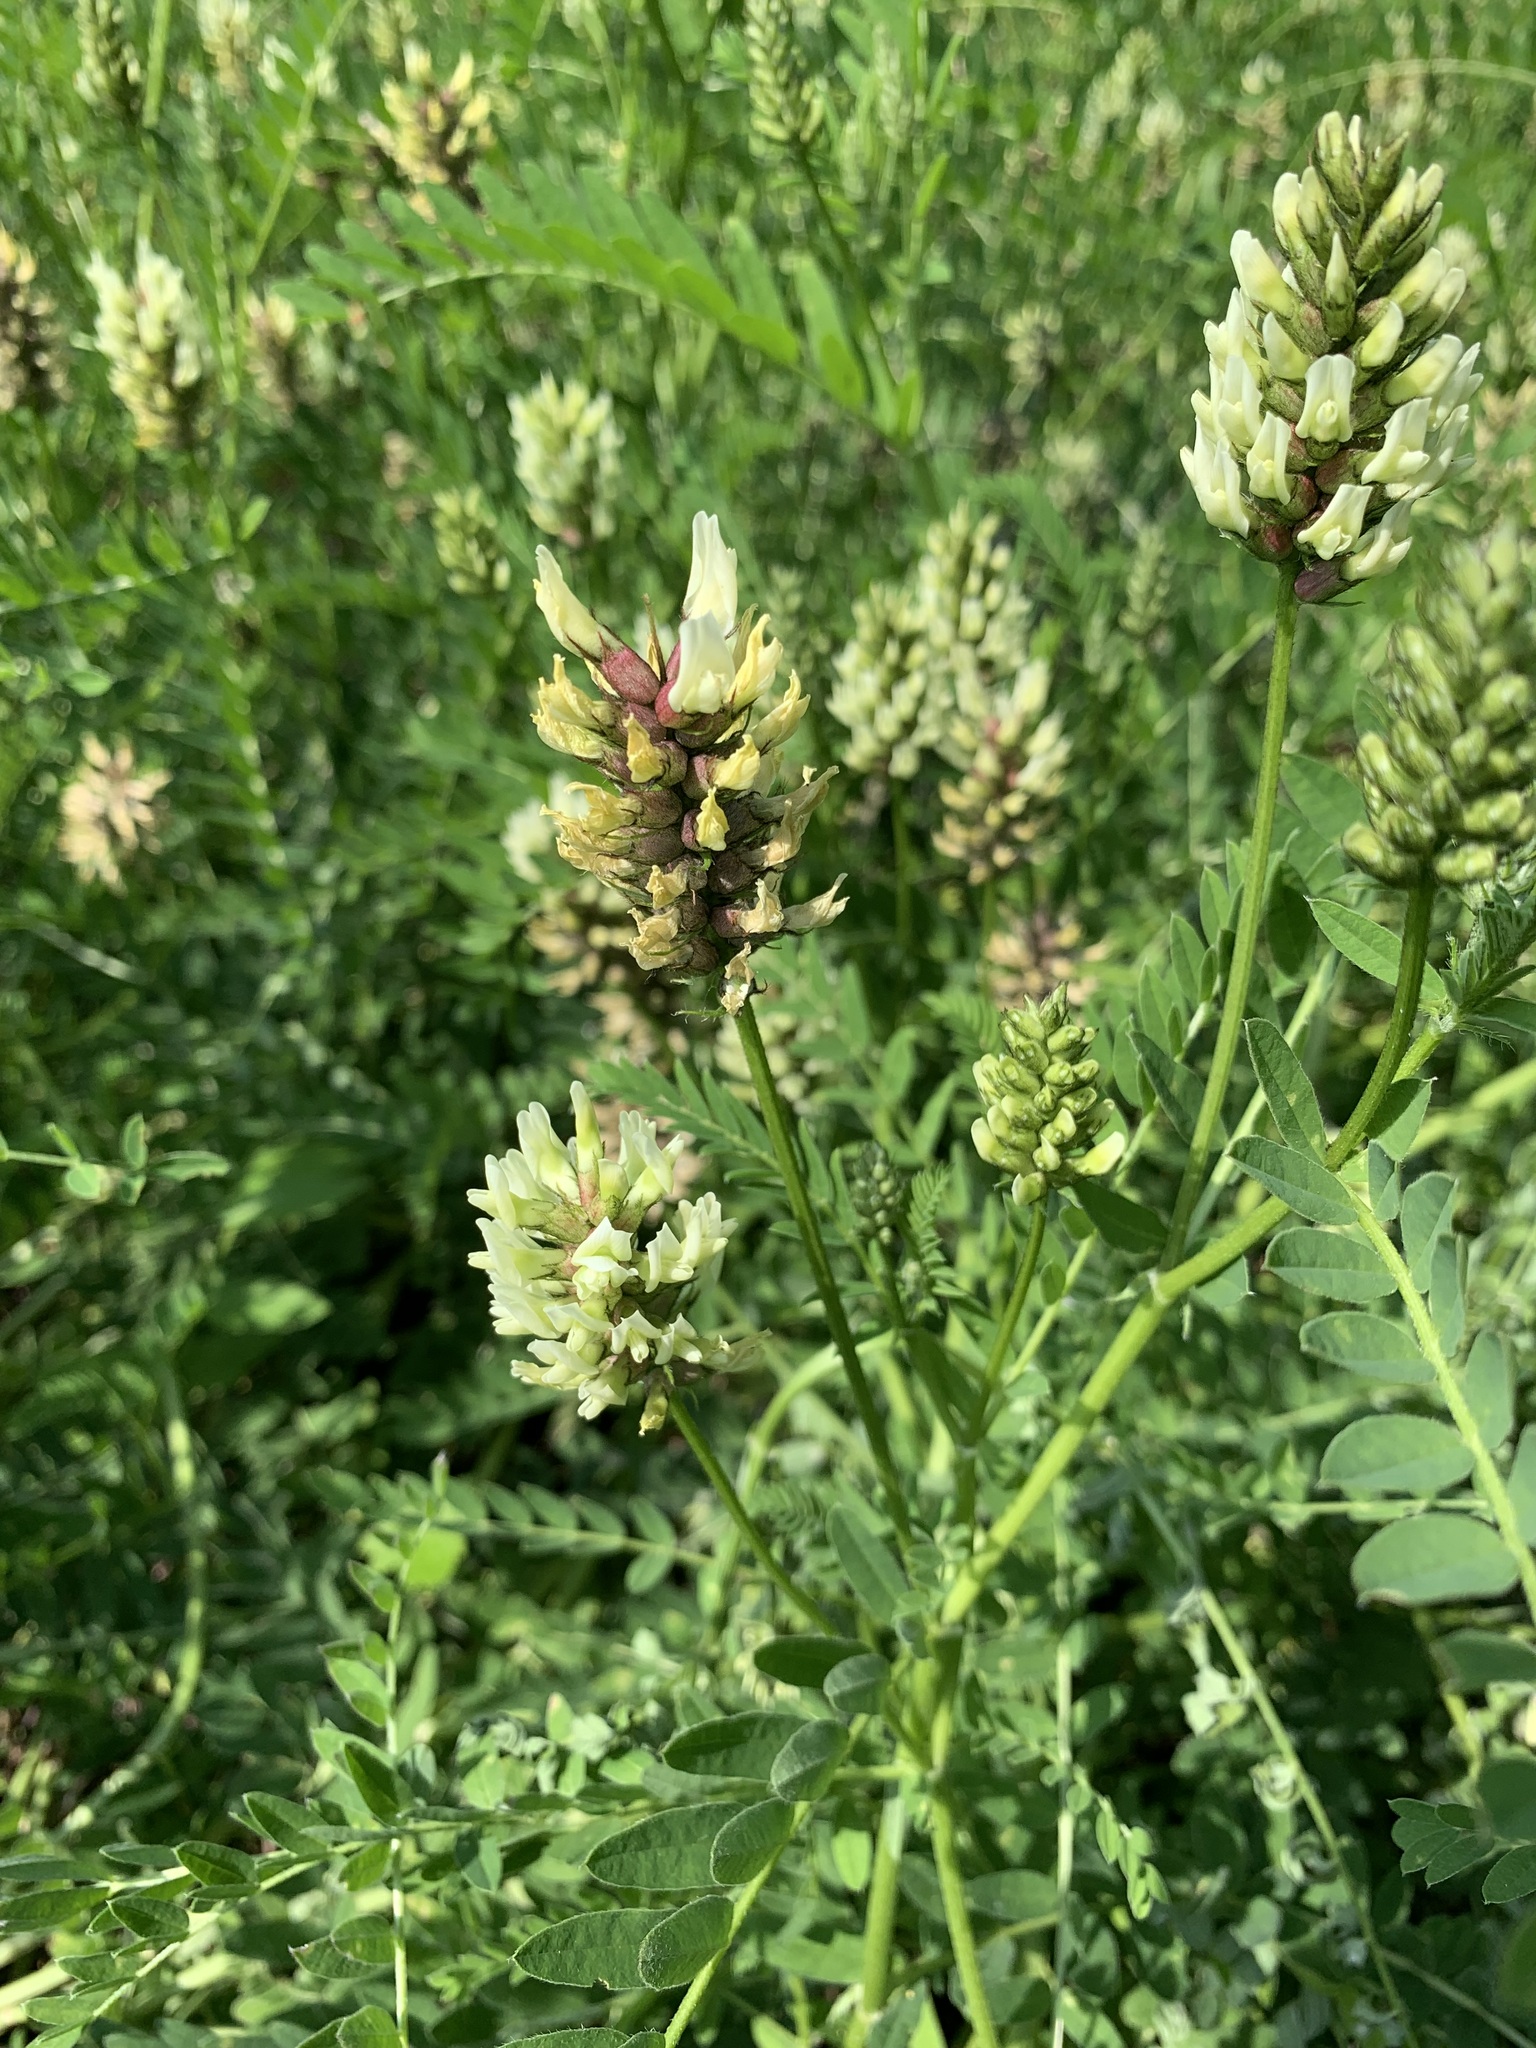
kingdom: Plantae
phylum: Tracheophyta
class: Magnoliopsida
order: Fabales
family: Fabaceae
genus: Astragalus
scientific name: Astragalus cicer
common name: Chick-pea milk-vetch
